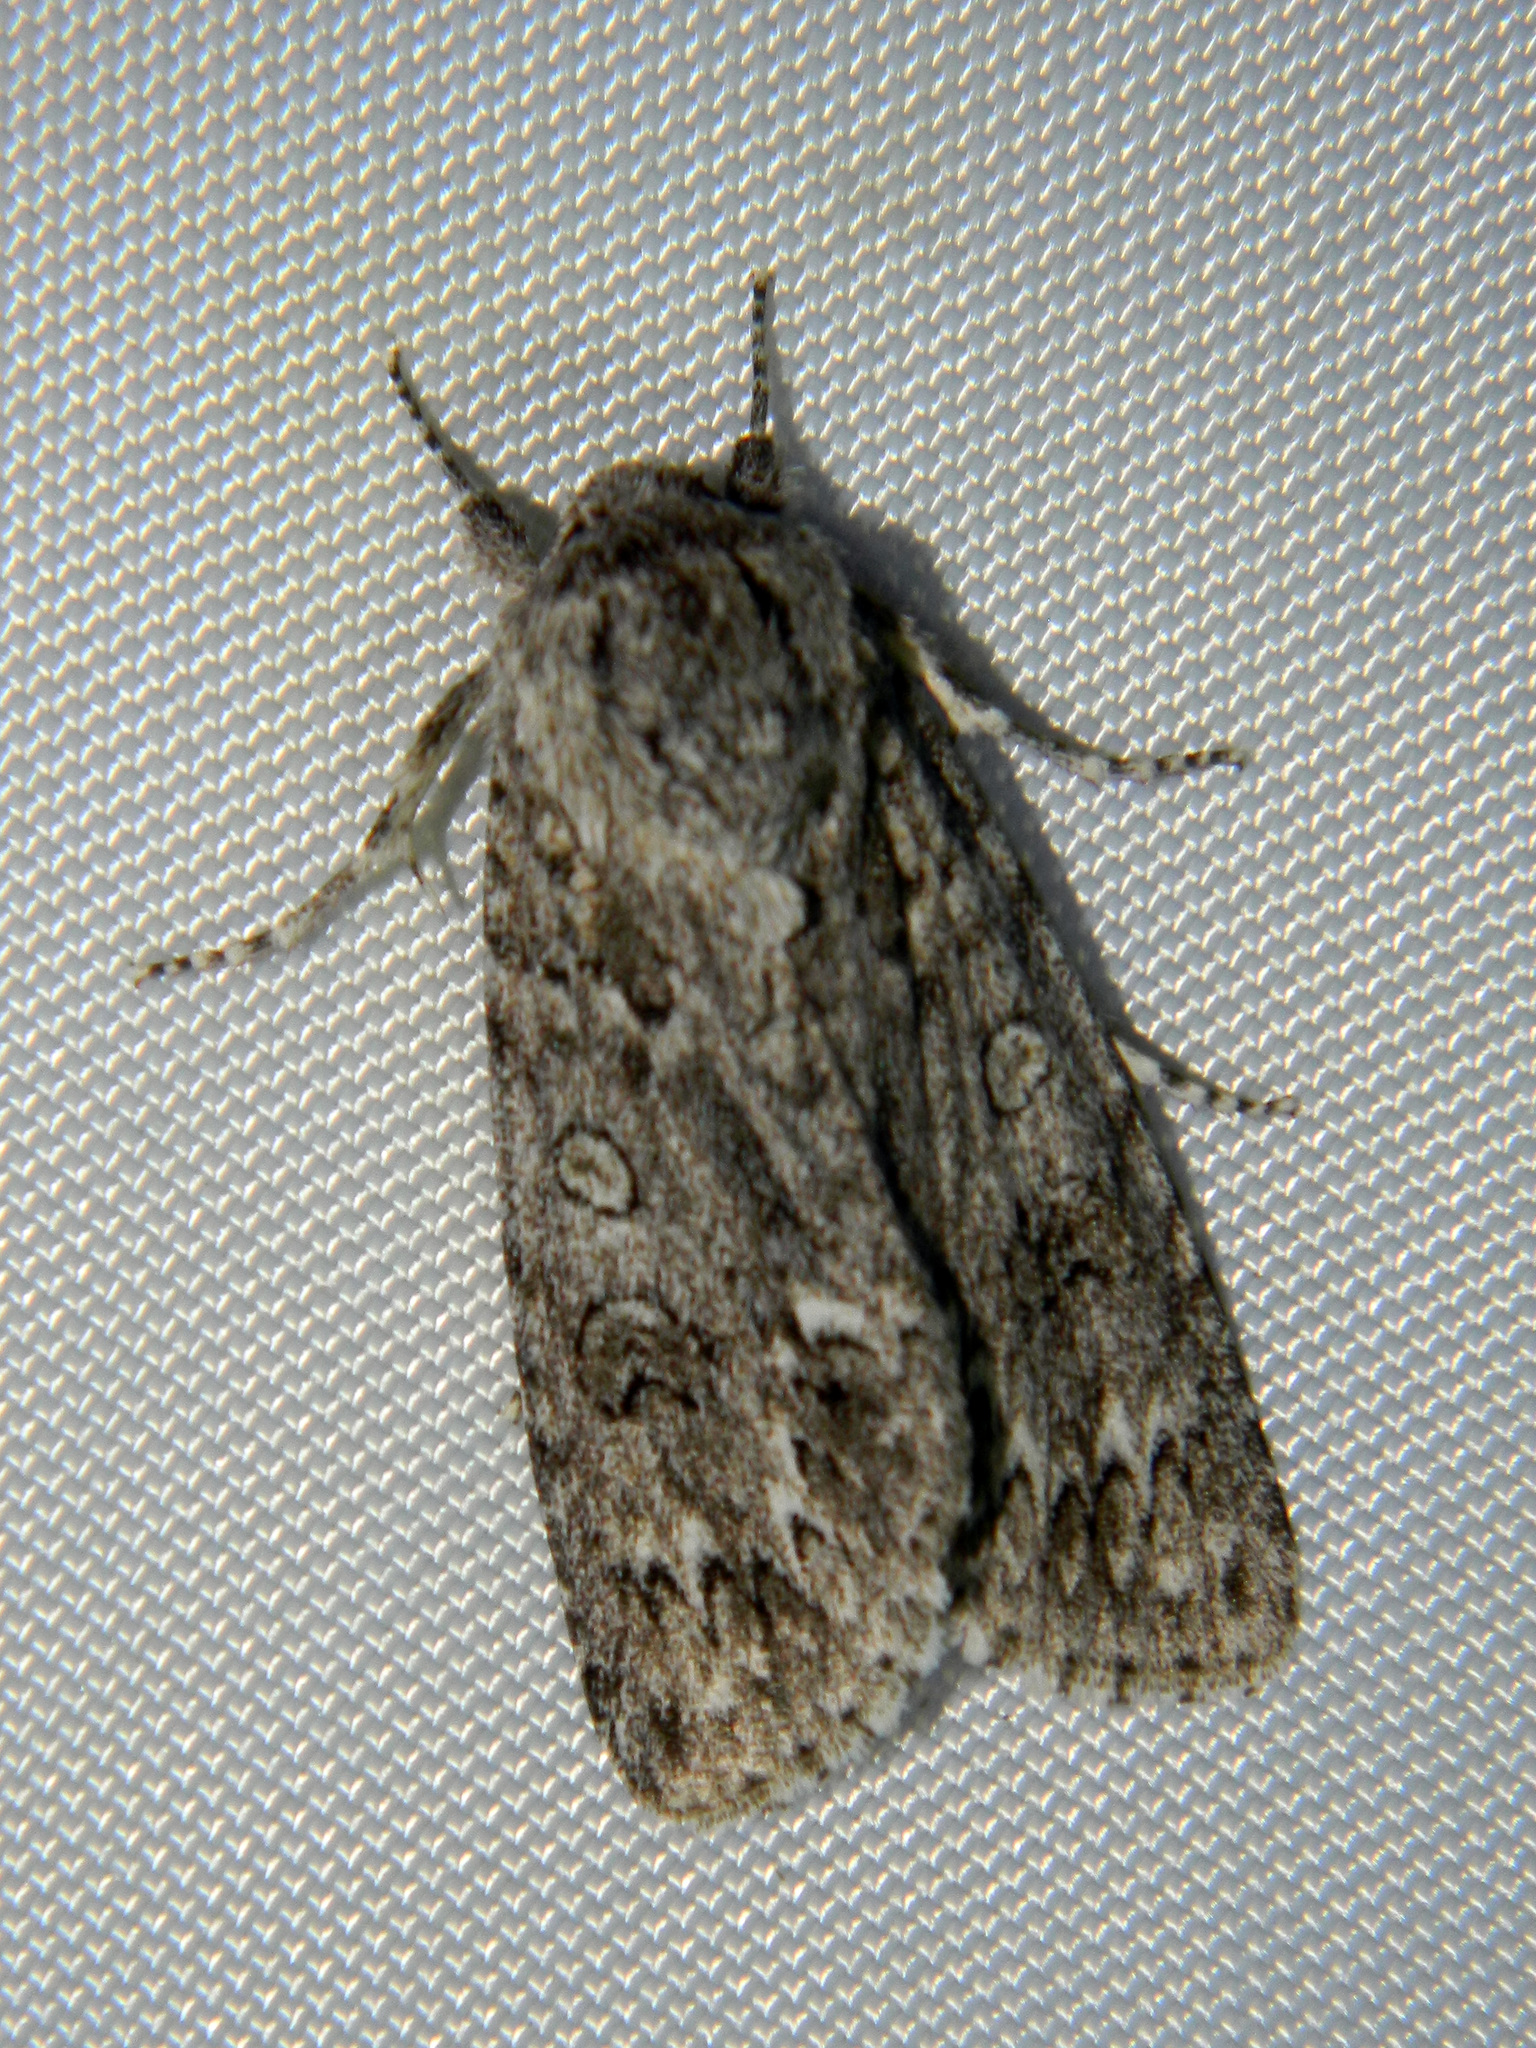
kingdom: Animalia
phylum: Arthropoda
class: Insecta
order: Lepidoptera
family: Noctuidae
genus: Acronicta
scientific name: Acronicta impleta
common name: Powdered dagger
